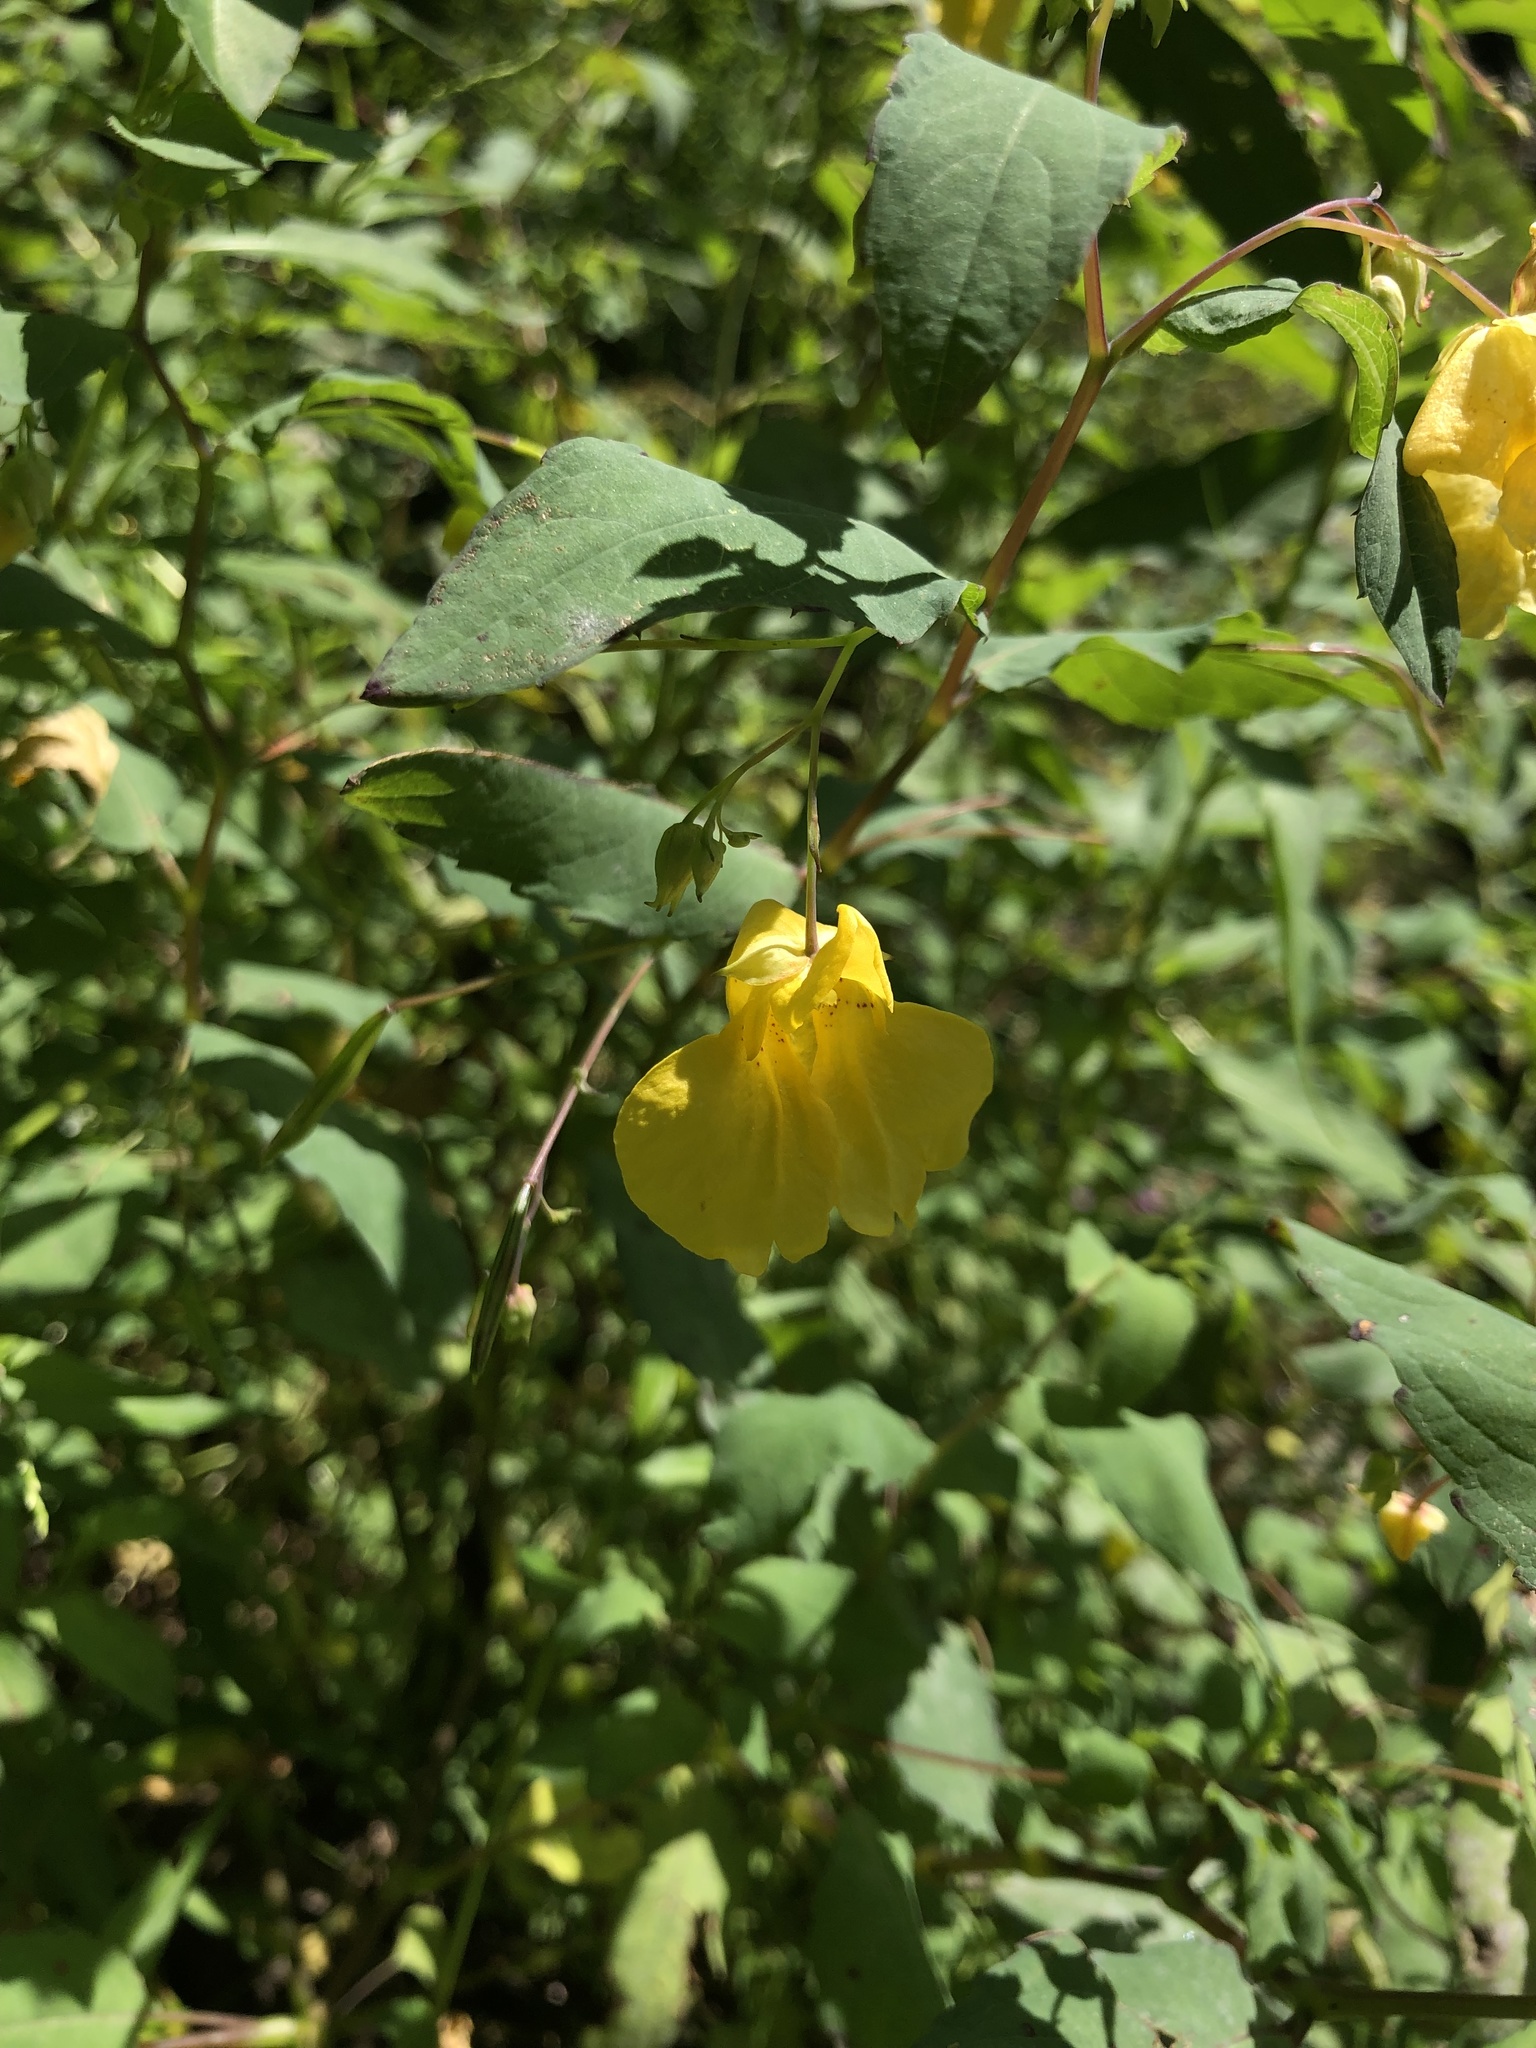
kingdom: Plantae
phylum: Tracheophyta
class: Magnoliopsida
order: Ericales
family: Balsaminaceae
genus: Impatiens
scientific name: Impatiens noli-tangere
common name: Touch-me-not balsam
